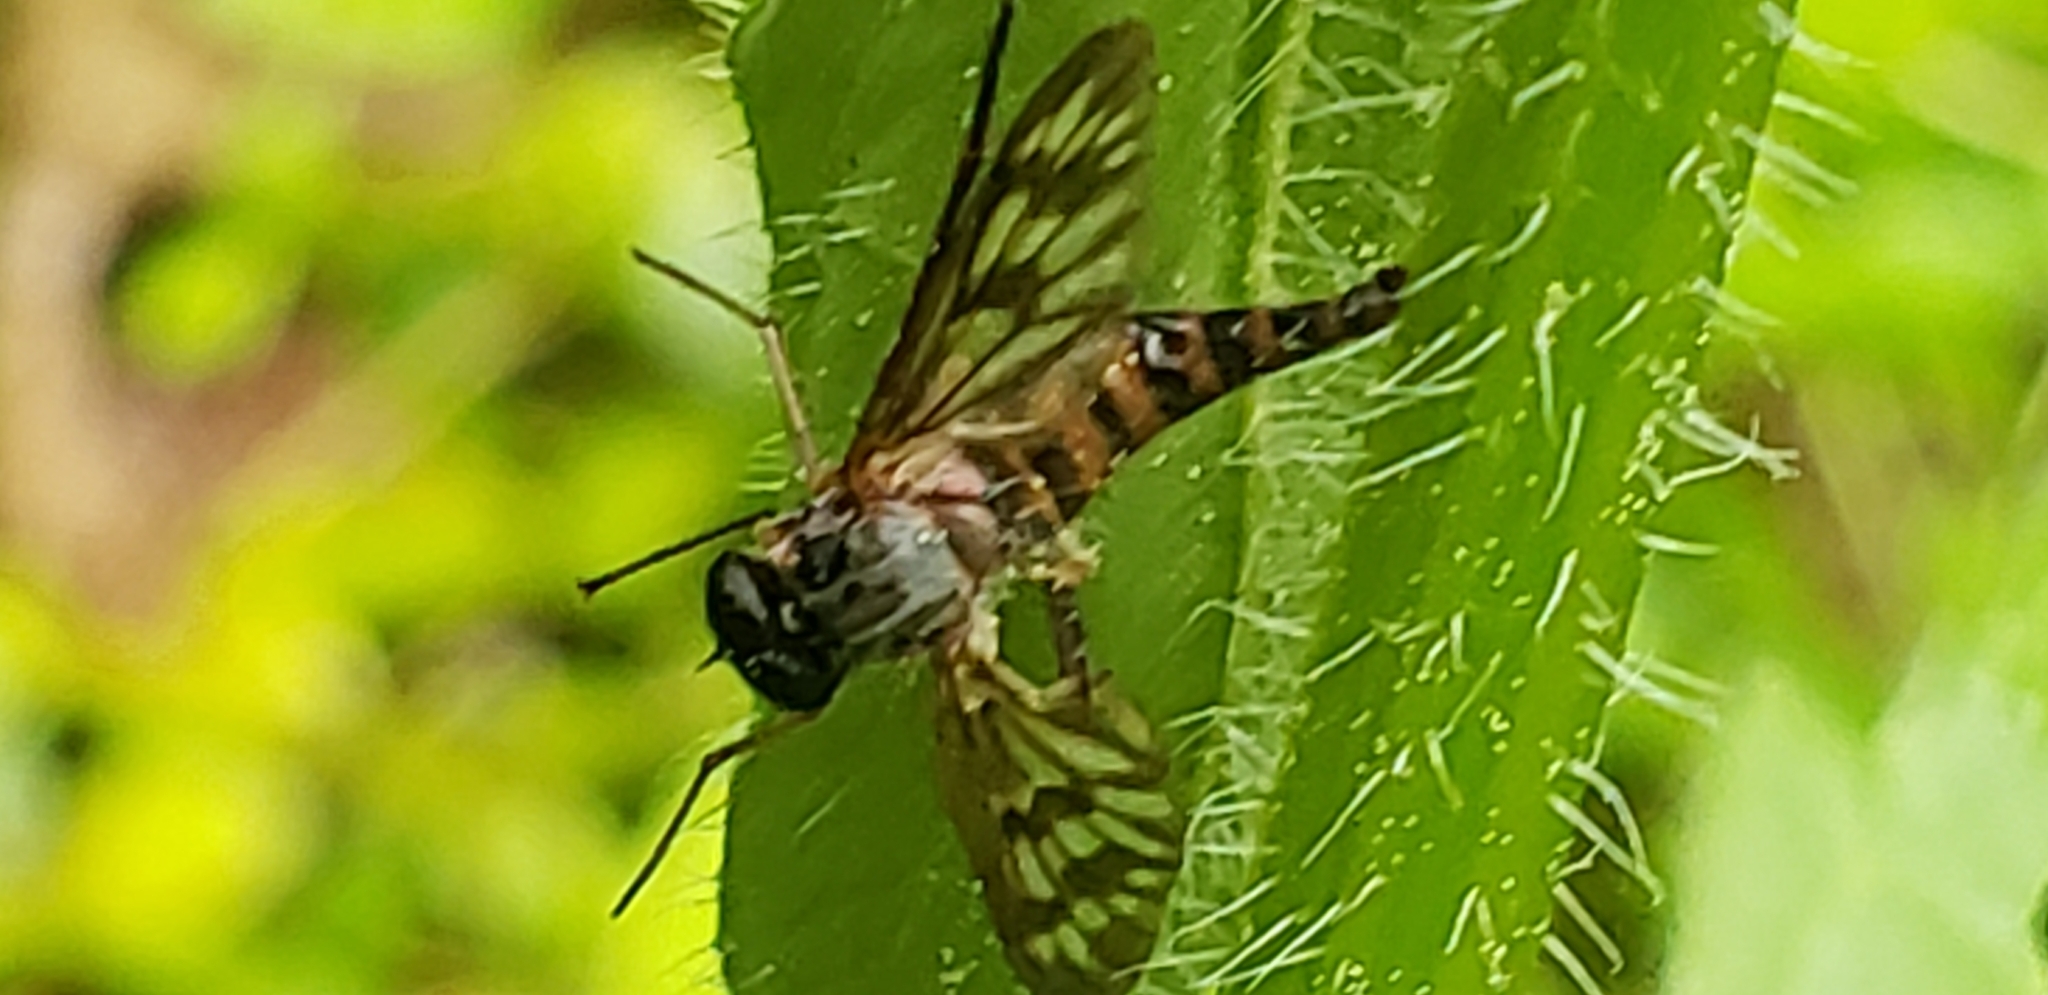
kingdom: Animalia
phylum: Arthropoda
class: Insecta
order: Diptera
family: Rhagionidae
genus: Rhagio
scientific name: Rhagio mystaceus
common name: Common snipe fly
